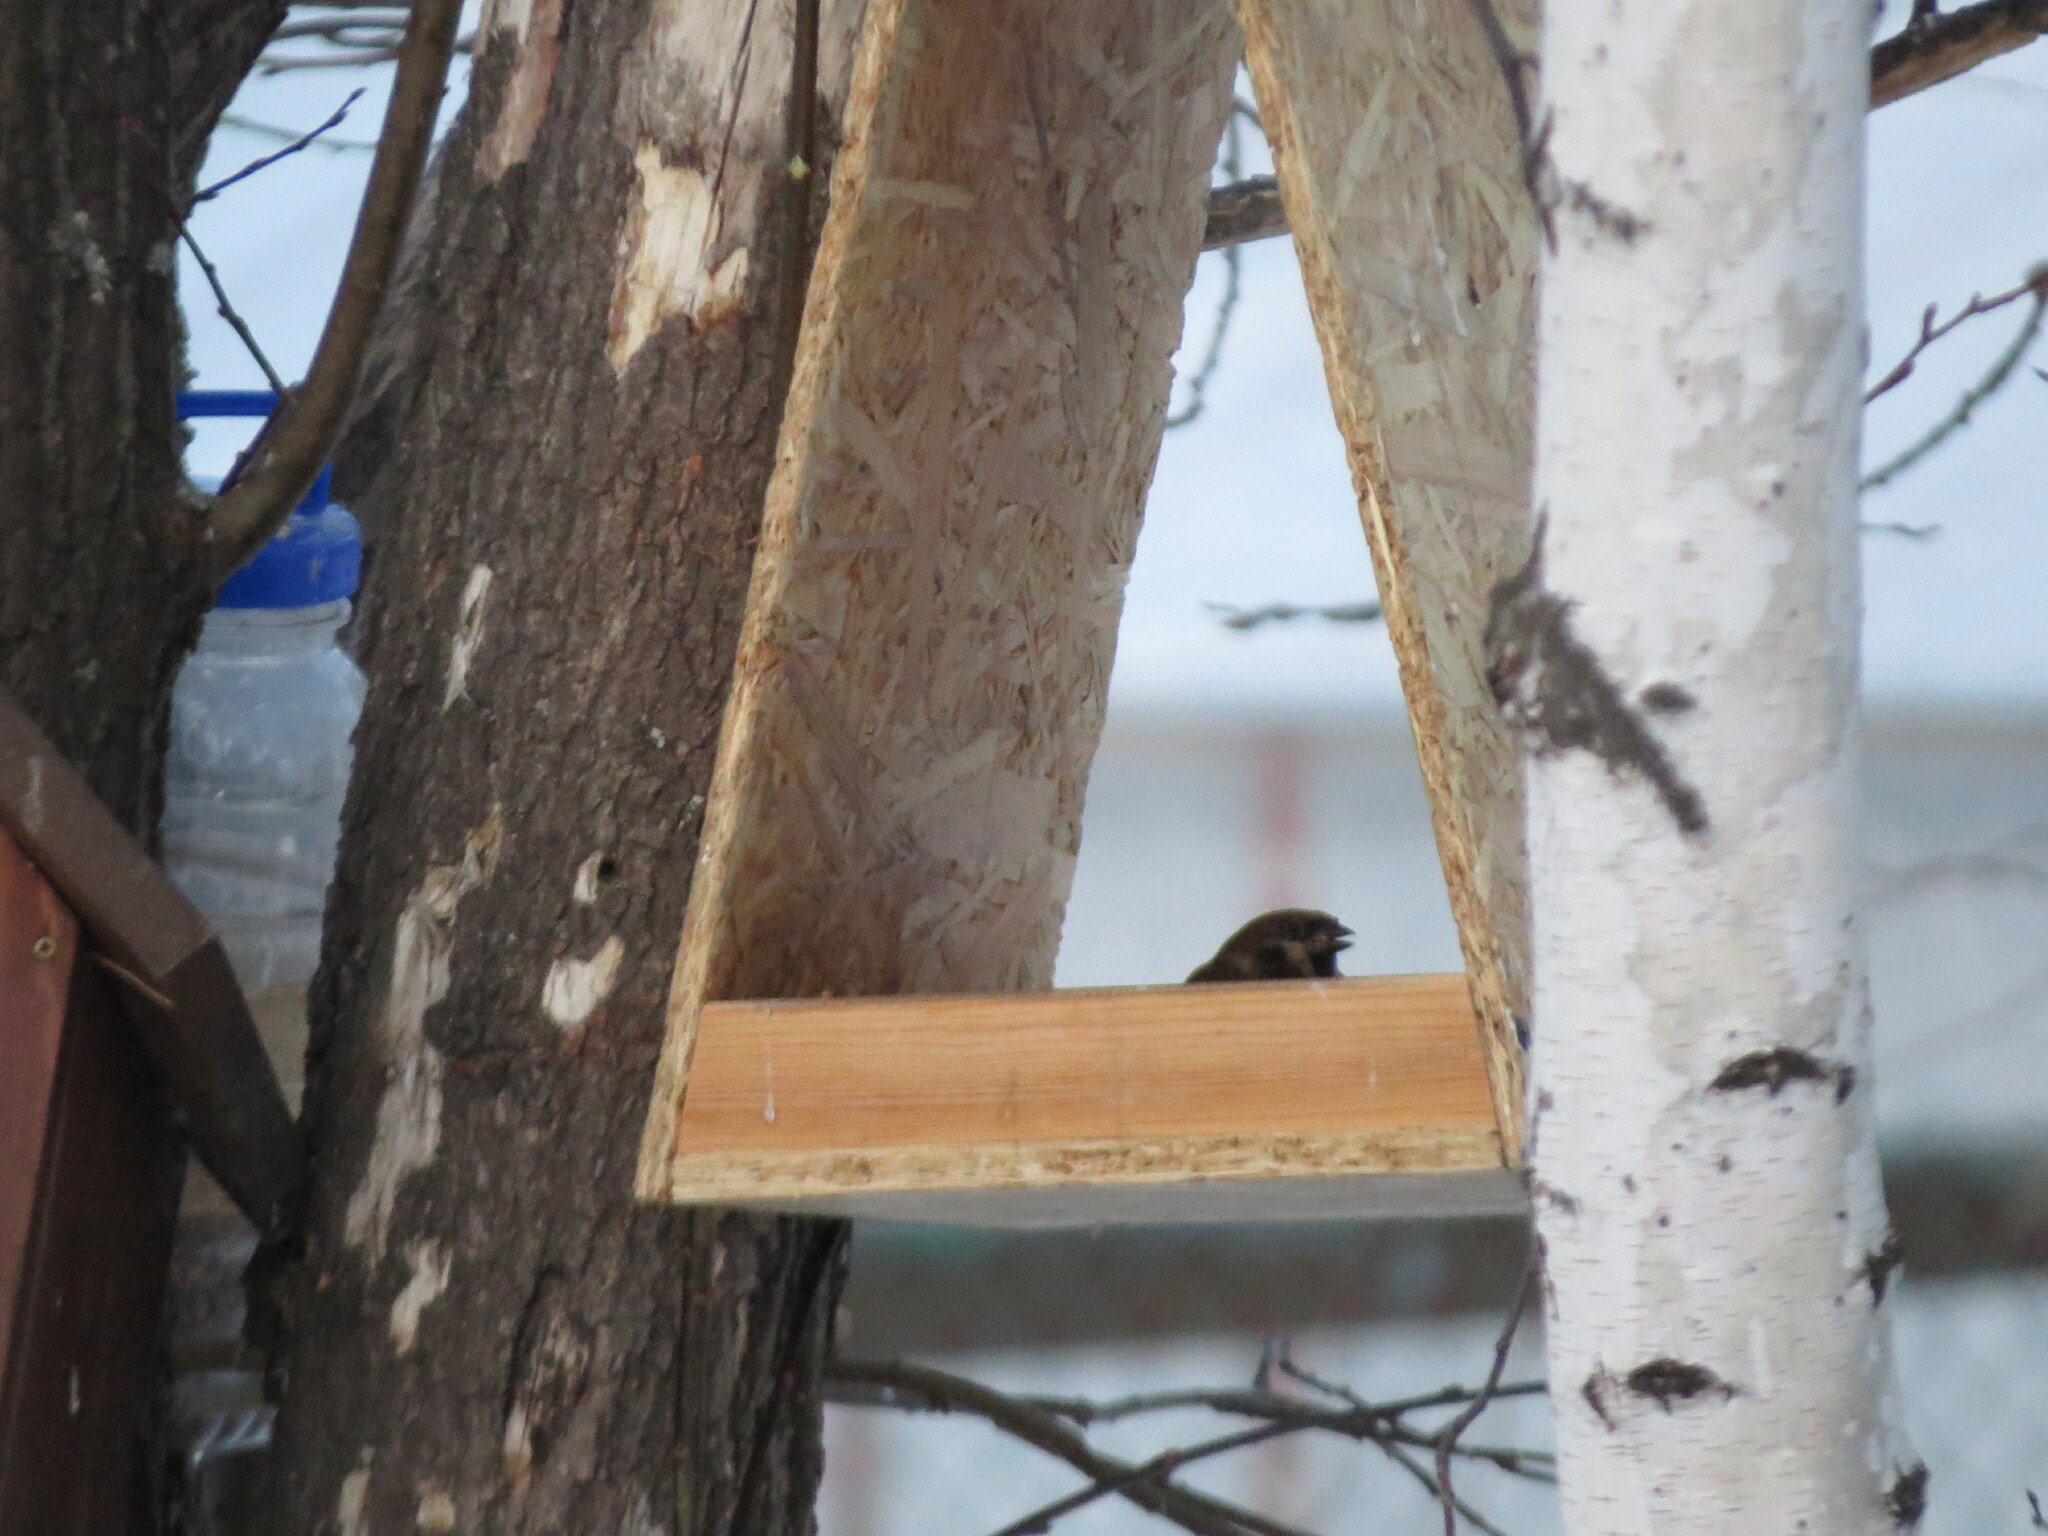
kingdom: Animalia
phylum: Chordata
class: Aves
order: Passeriformes
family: Passeridae
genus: Passer
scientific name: Passer montanus
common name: Eurasian tree sparrow
